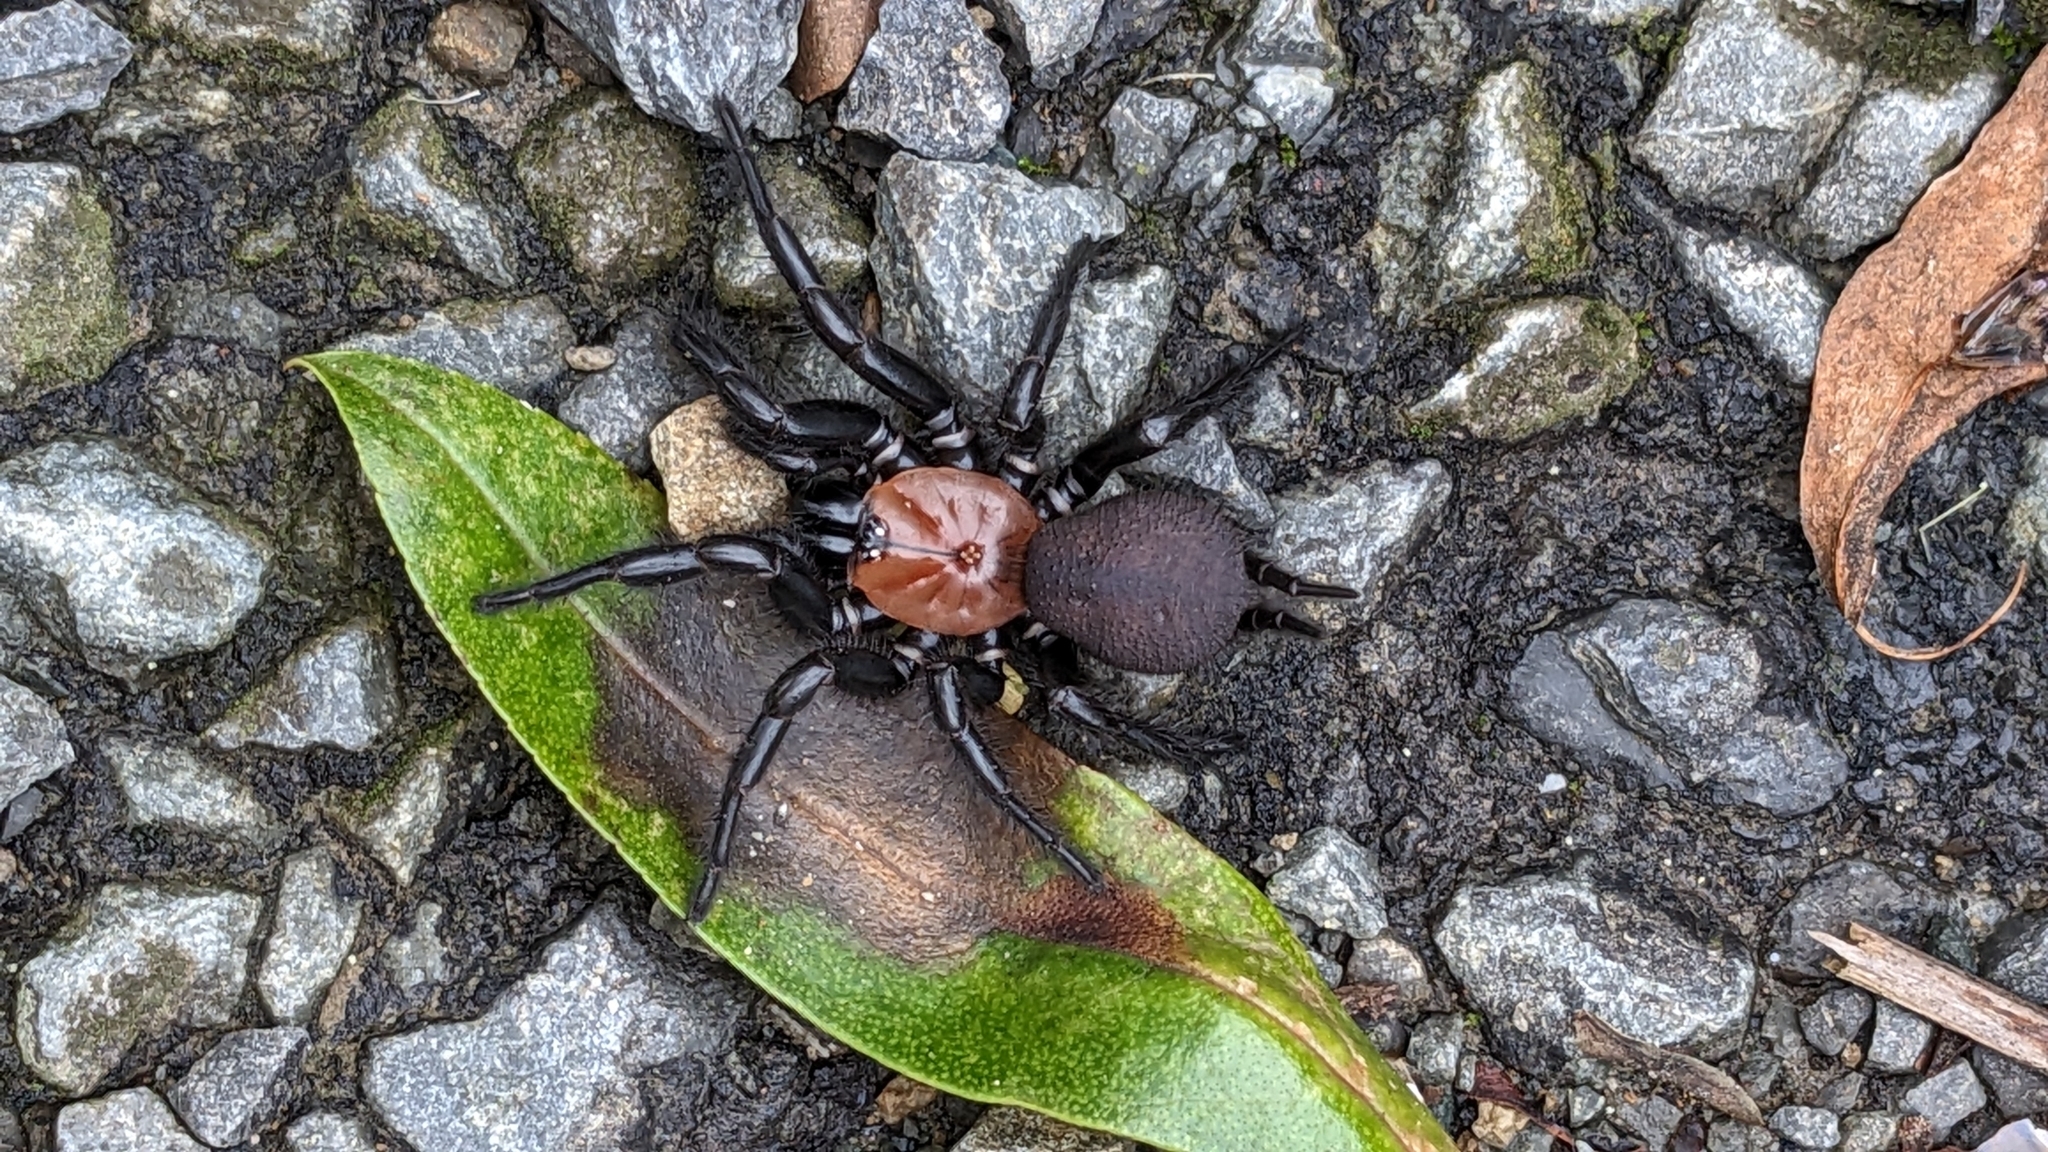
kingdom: Animalia
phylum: Arthropoda
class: Arachnida
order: Araneae
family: Porrhothelidae
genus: Porrhothele
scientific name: Porrhothele antipodiana
